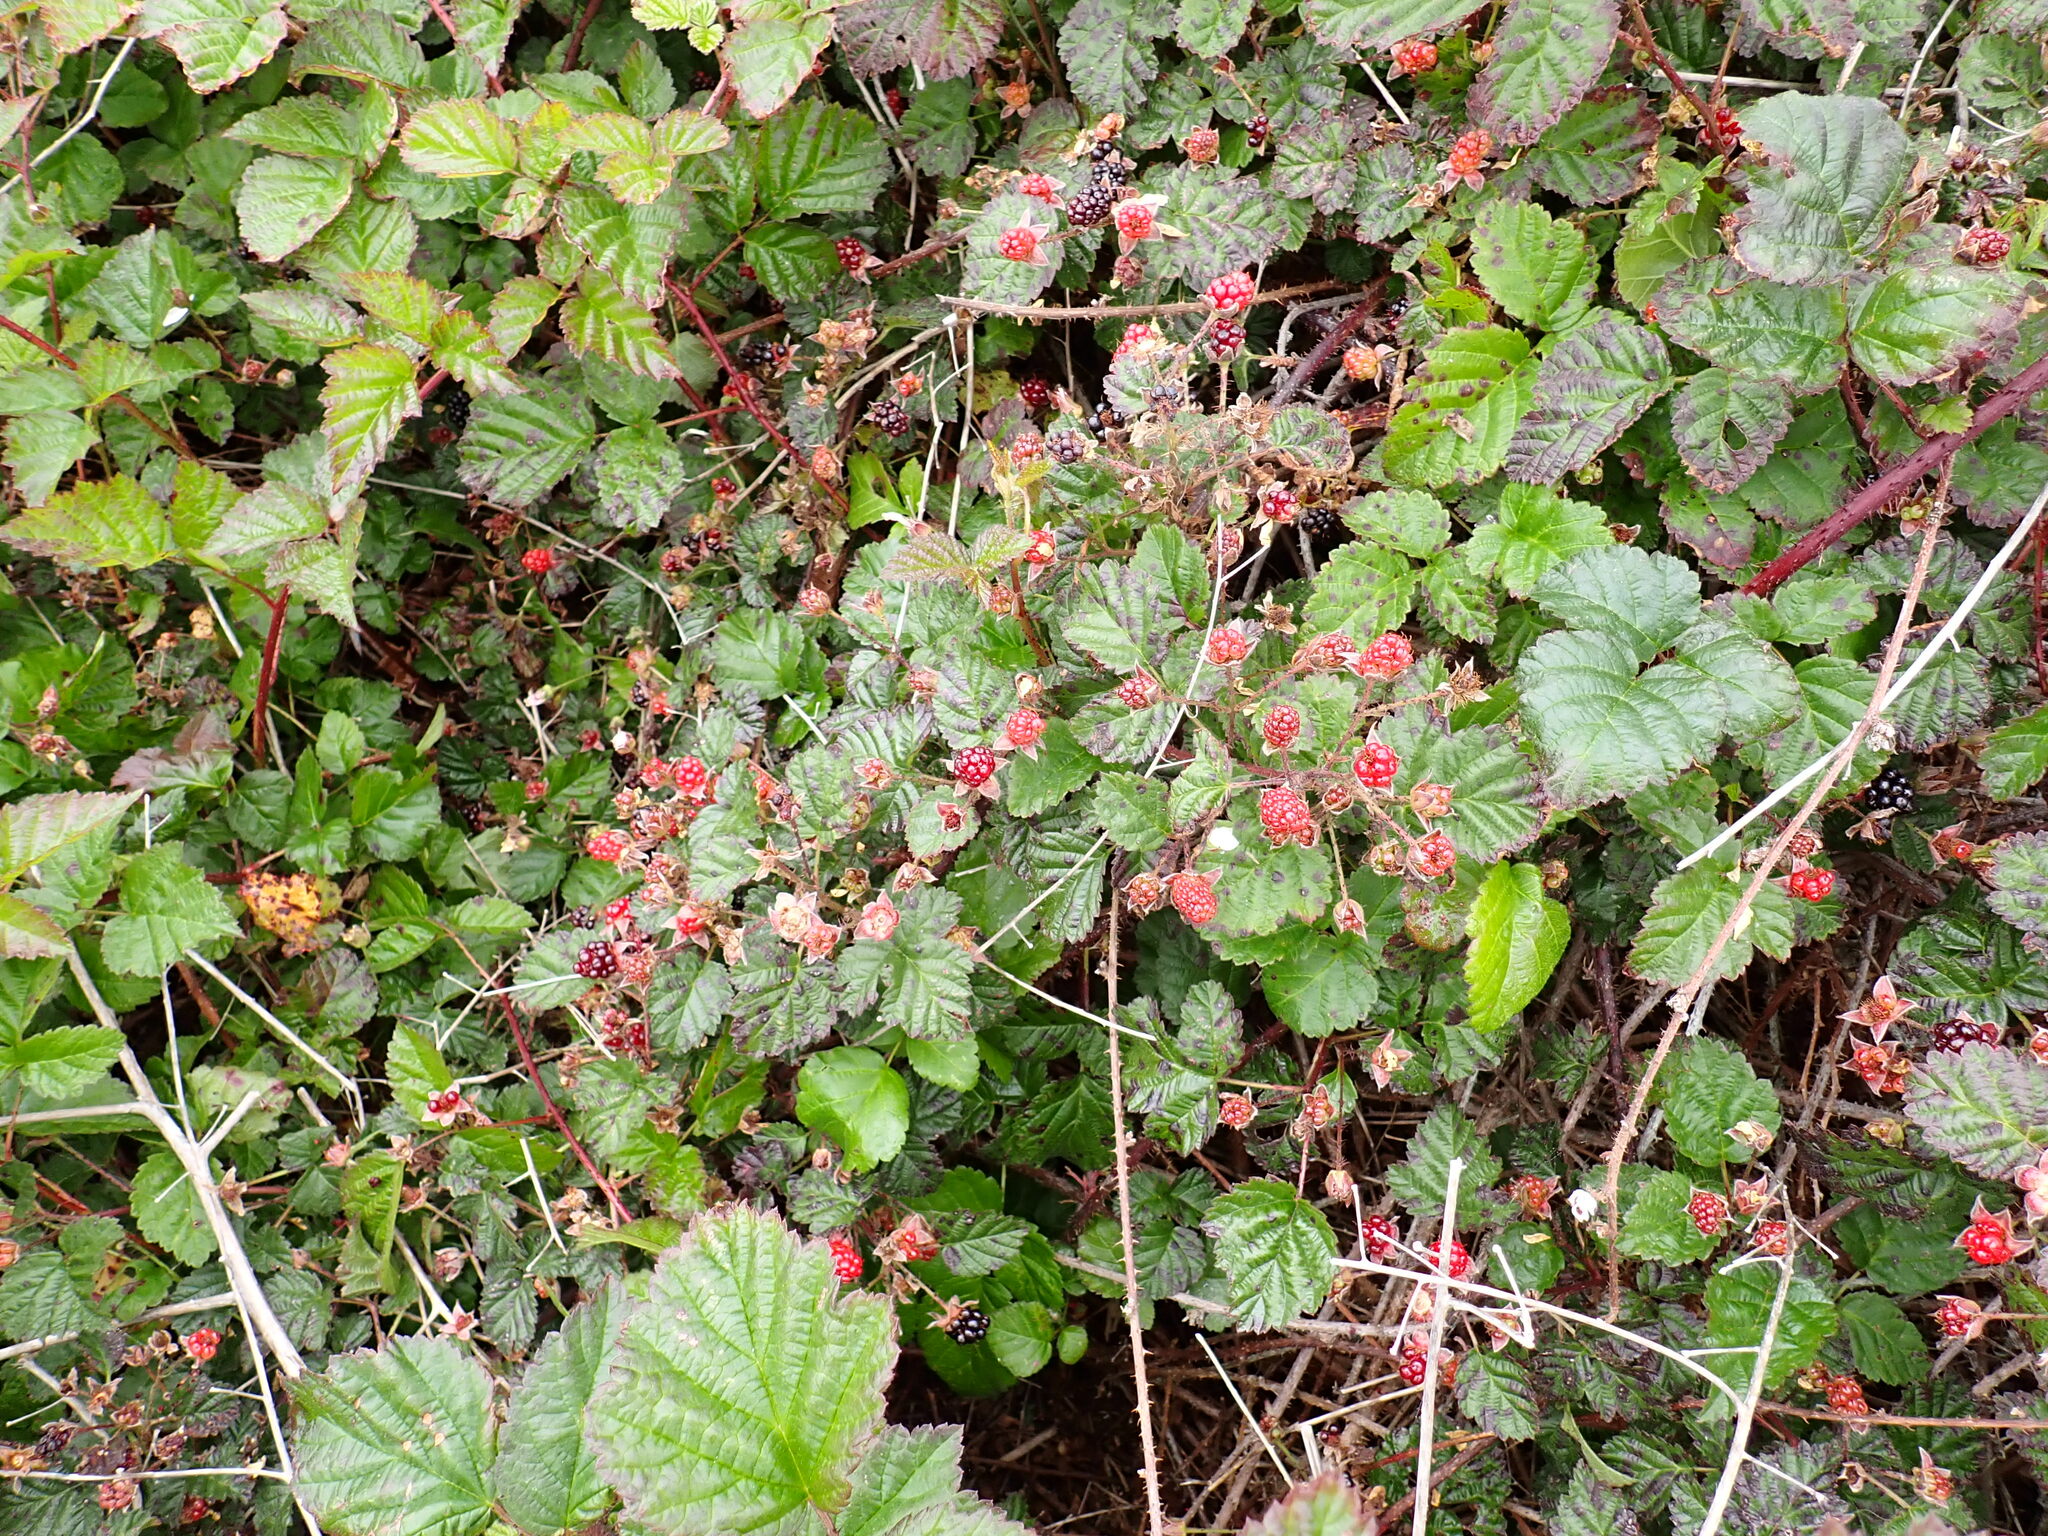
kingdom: Plantae
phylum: Tracheophyta
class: Magnoliopsida
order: Rosales
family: Rosaceae
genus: Rubus
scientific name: Rubus ursinus
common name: Pacific blackberry
